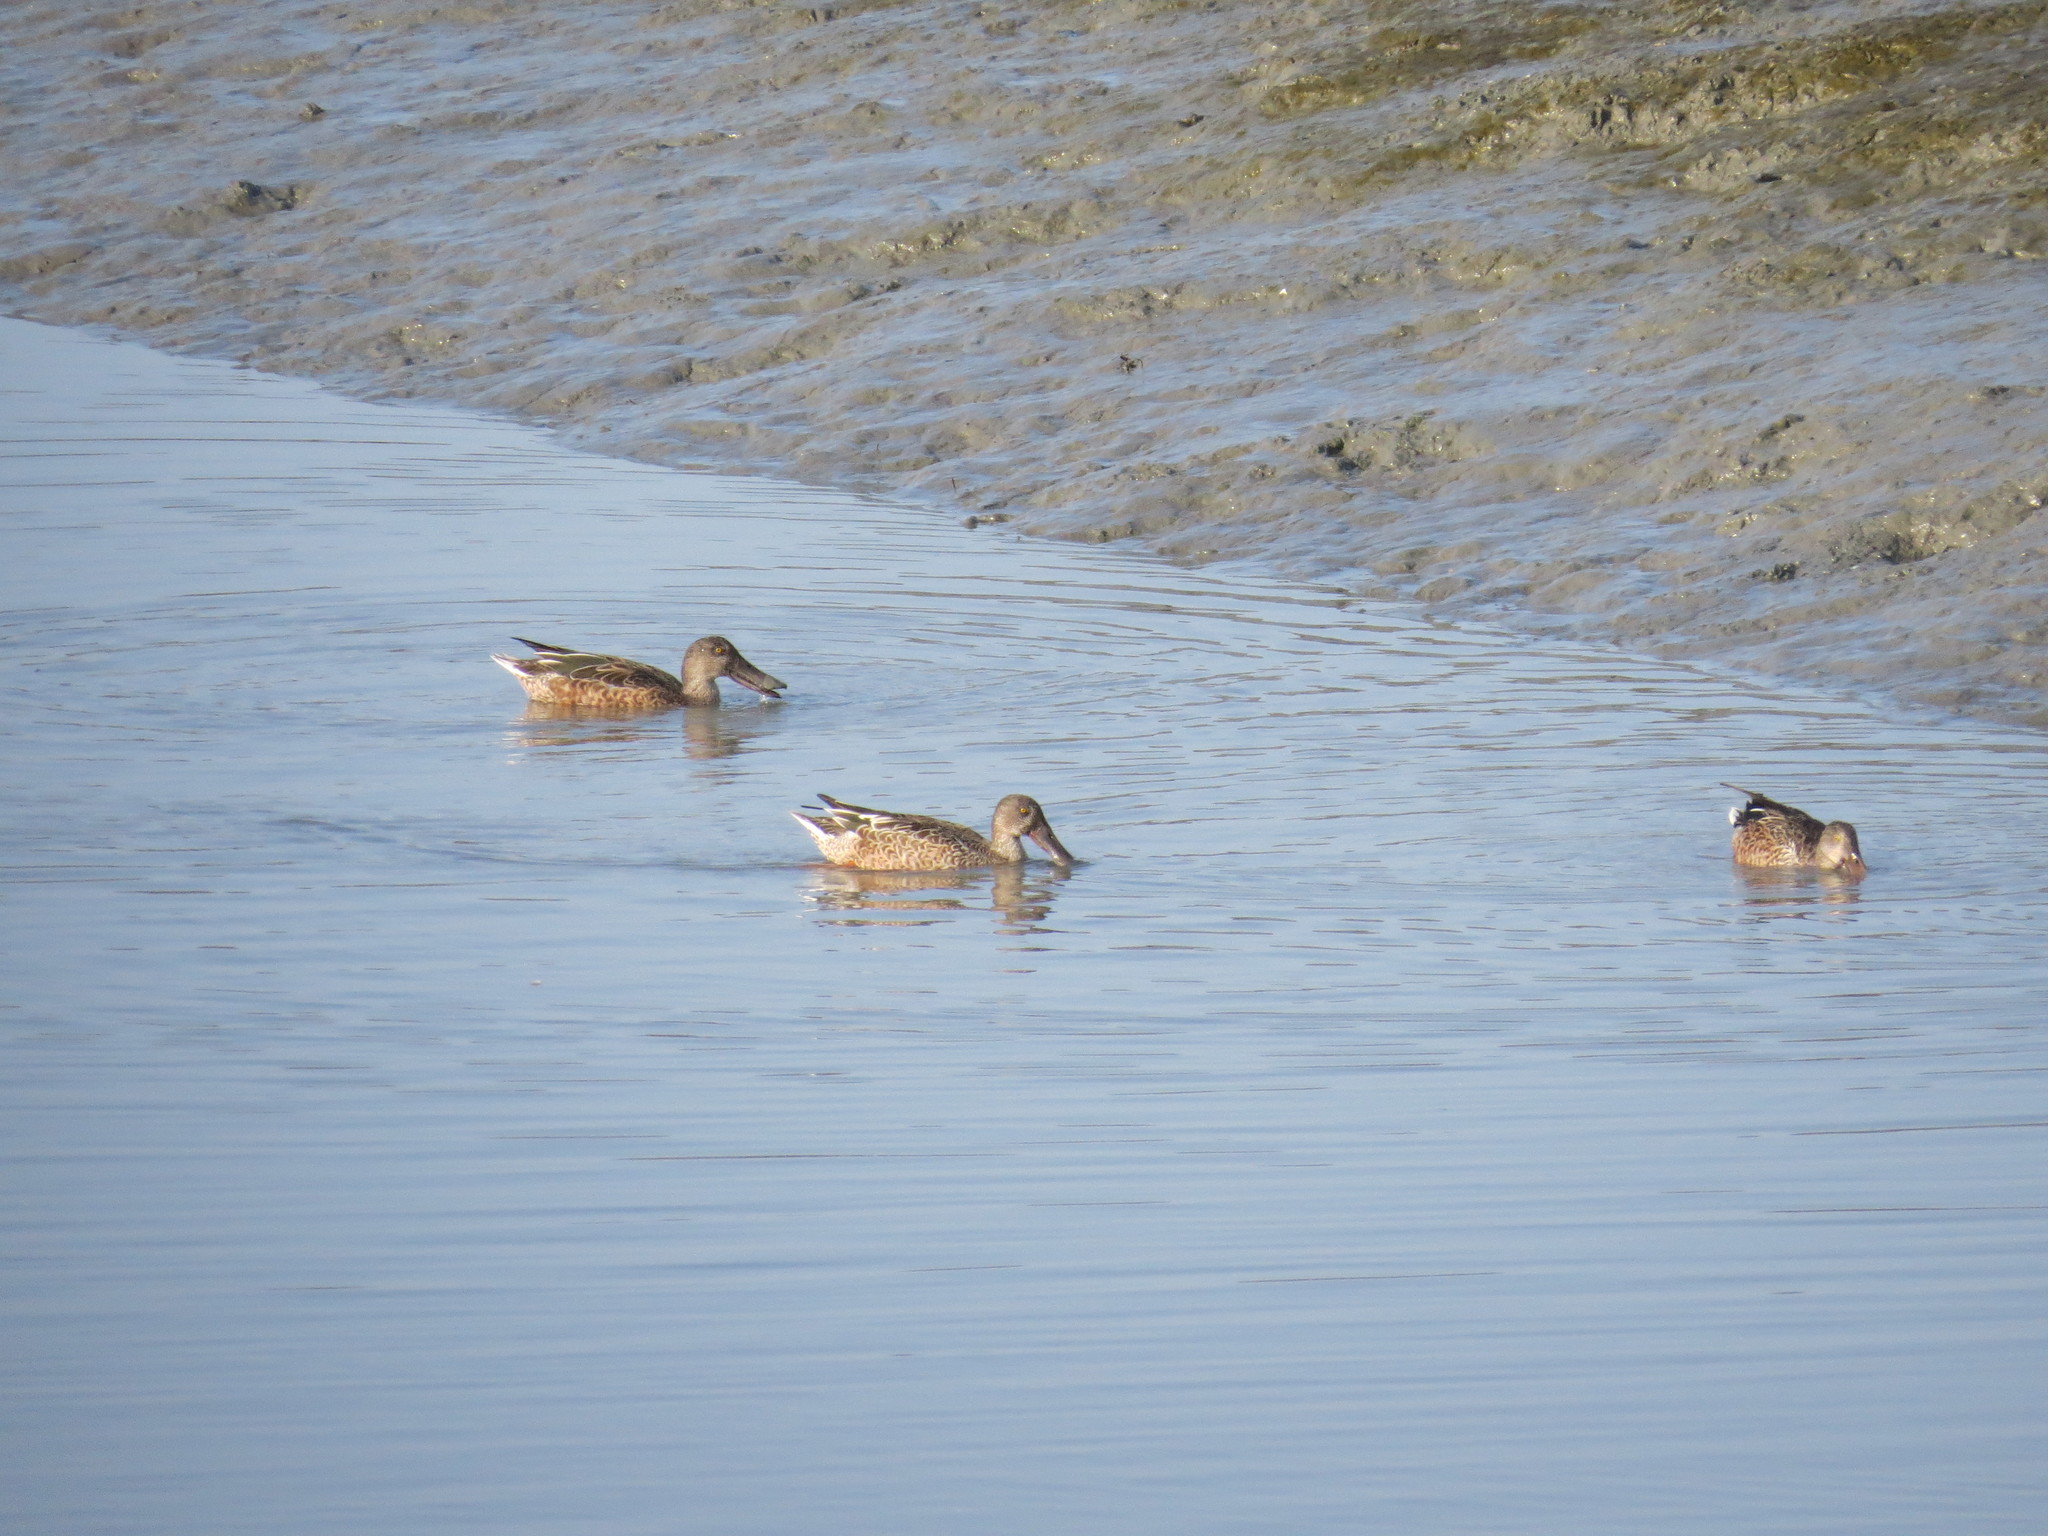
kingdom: Animalia
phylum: Chordata
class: Aves
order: Anseriformes
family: Anatidae
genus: Spatula
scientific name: Spatula clypeata
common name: Northern shoveler
